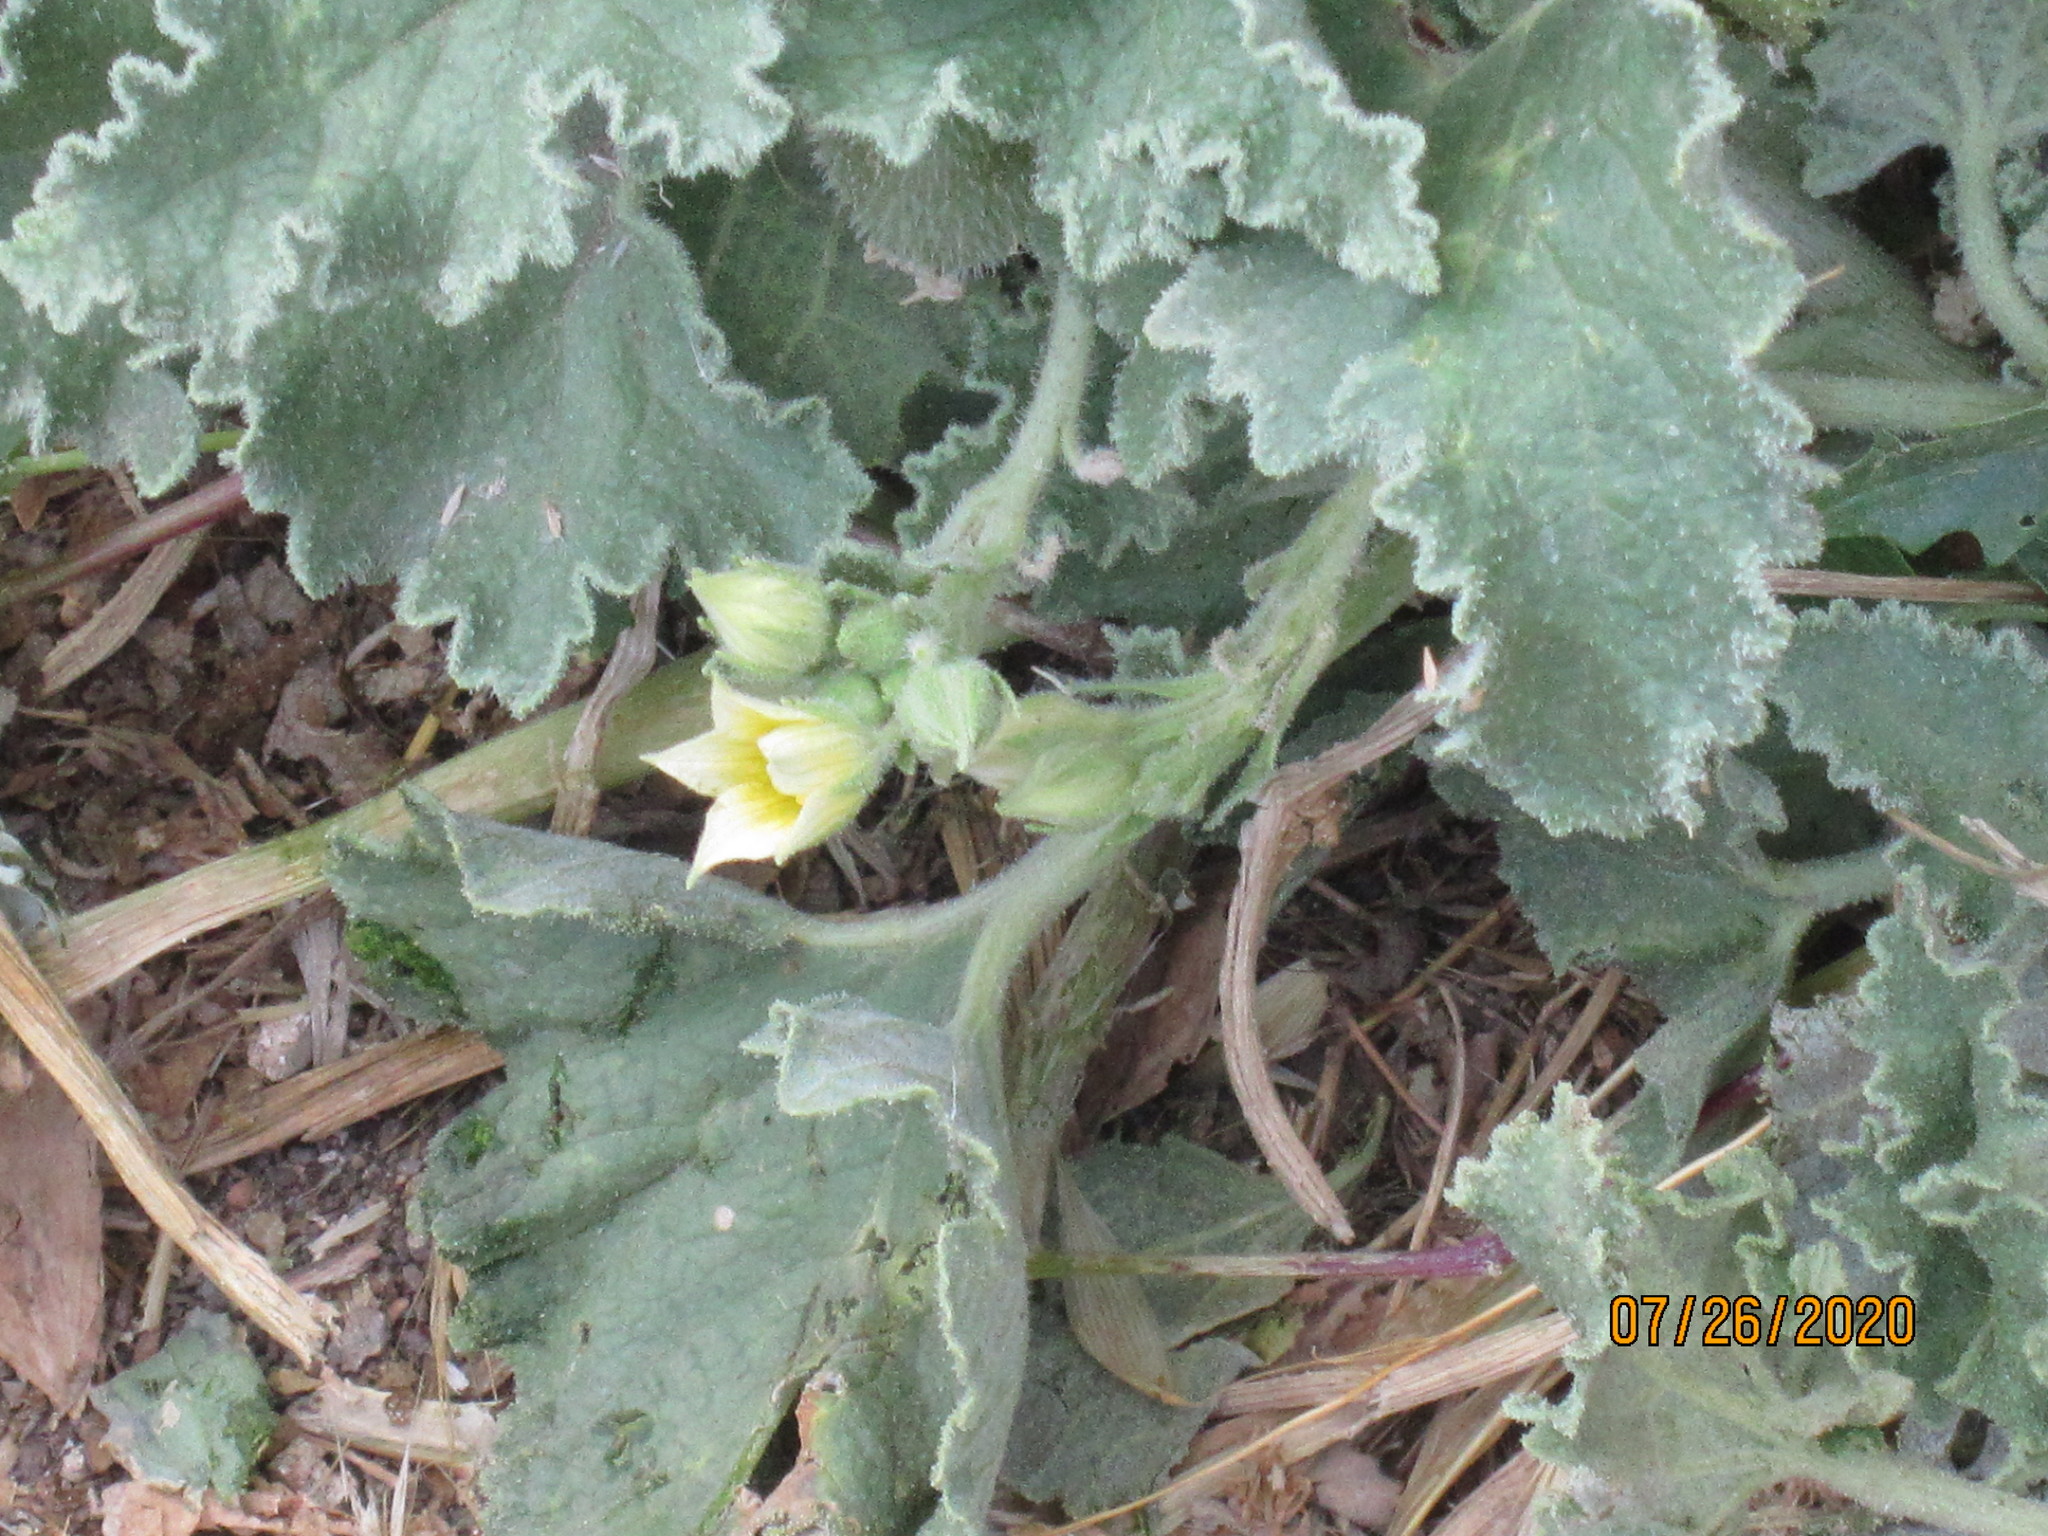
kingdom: Plantae
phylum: Tracheophyta
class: Magnoliopsida
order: Cucurbitales
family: Cucurbitaceae
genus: Ecballium
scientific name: Ecballium elaterium
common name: Squirting cucumber
